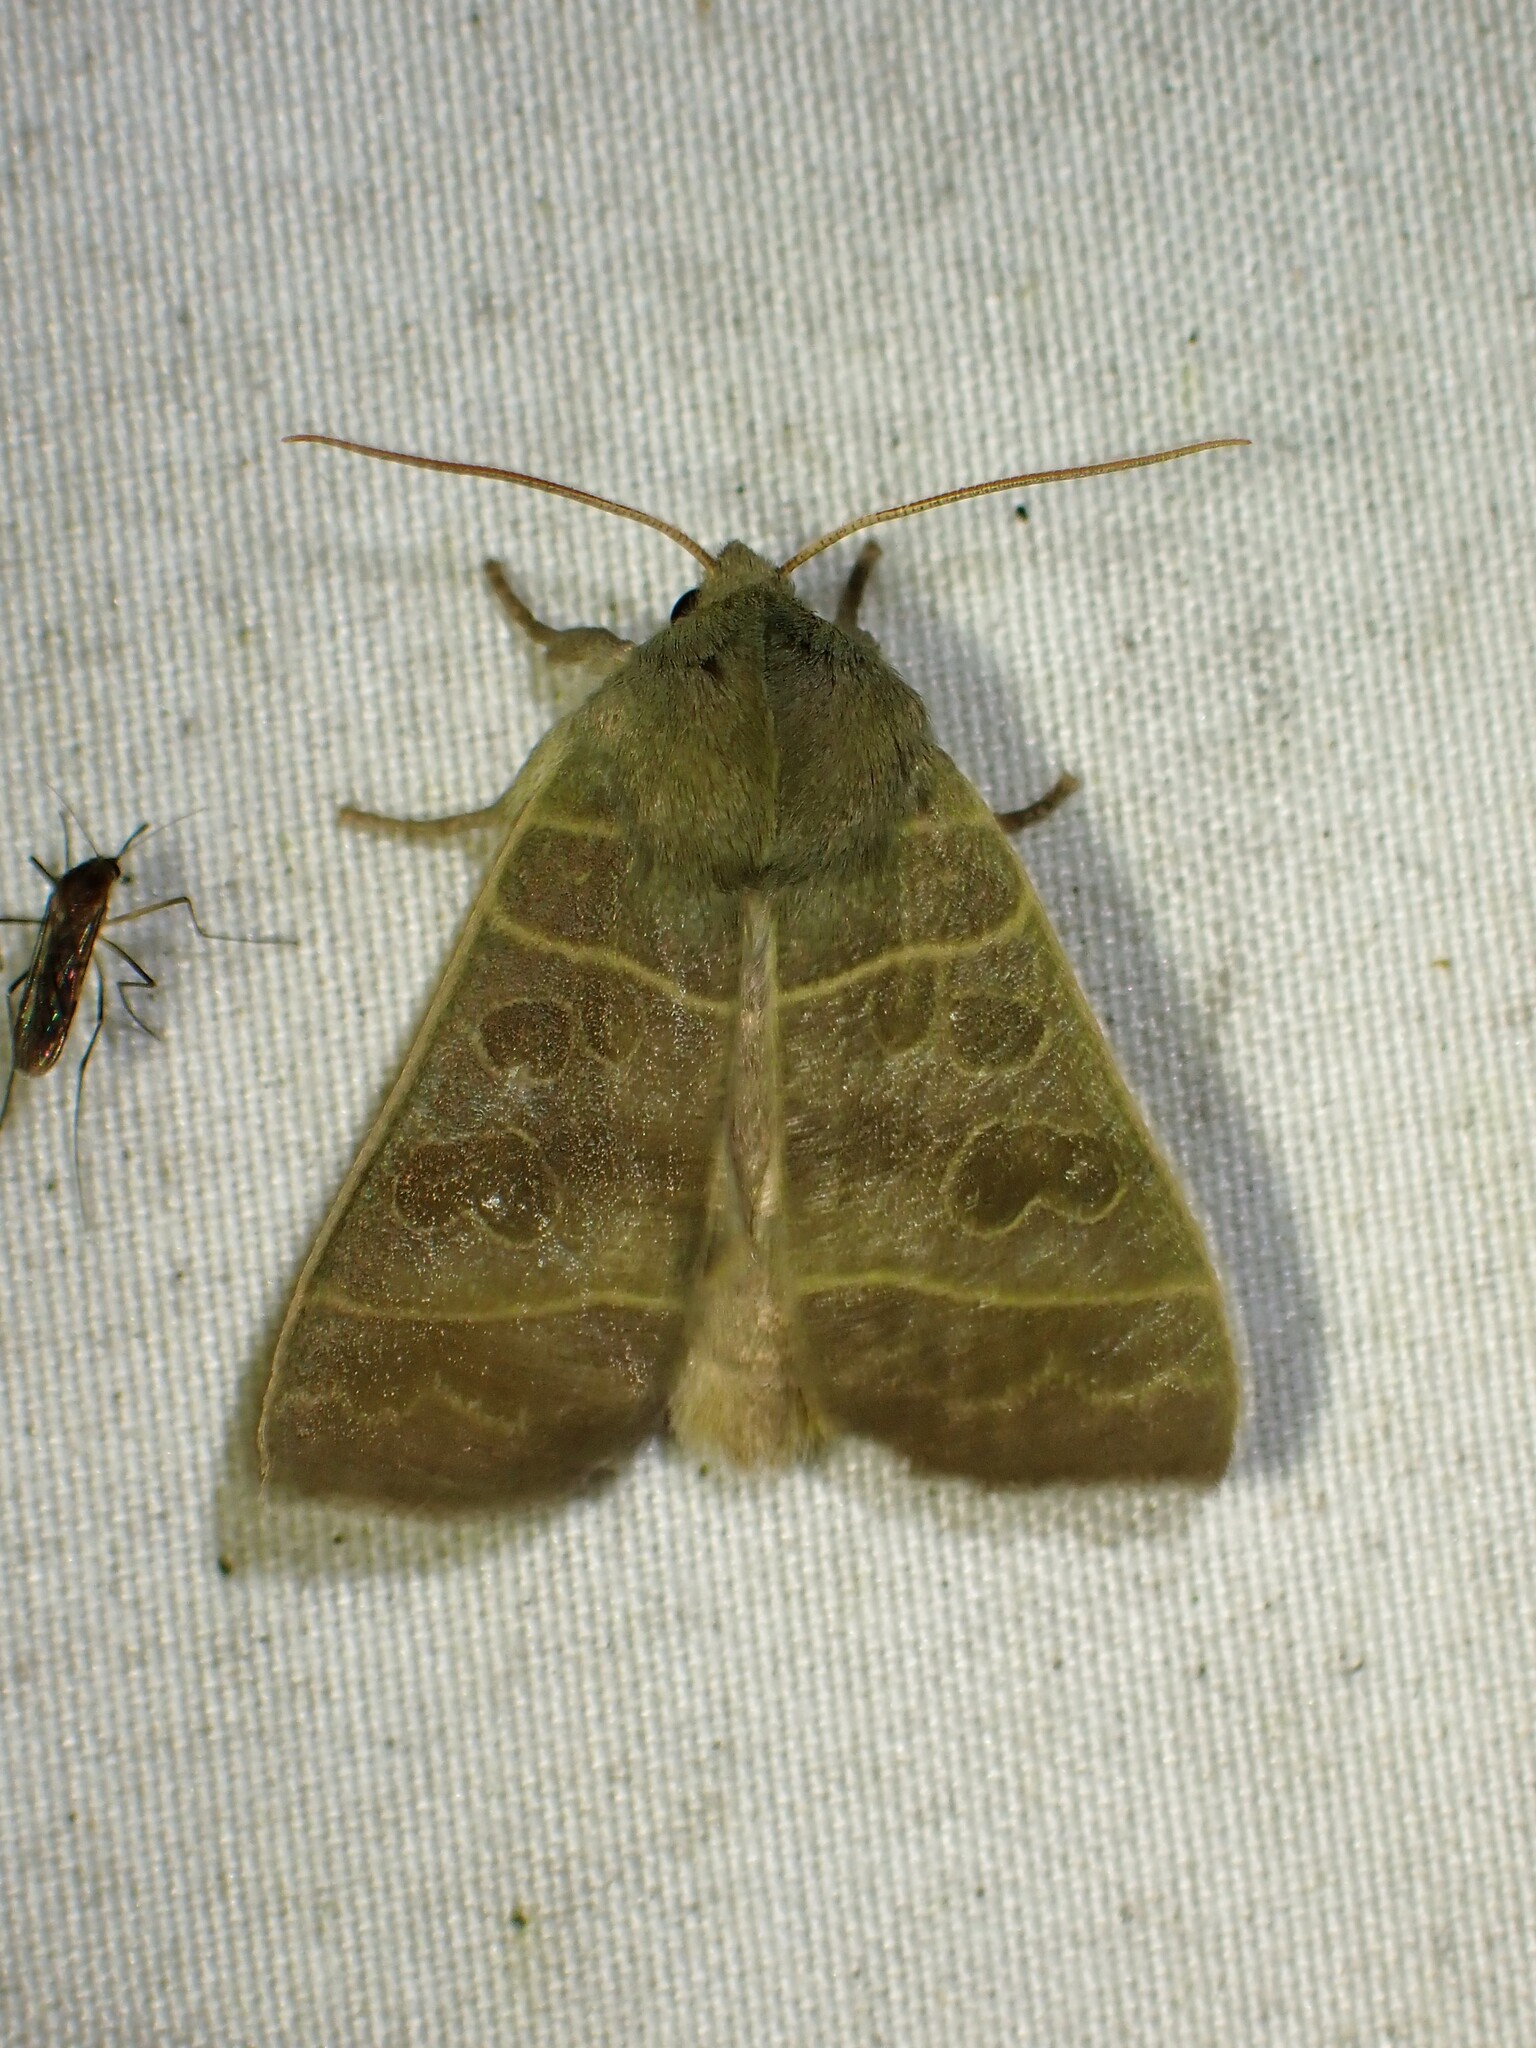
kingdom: Animalia
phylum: Arthropoda
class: Insecta
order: Lepidoptera
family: Noctuidae
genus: Ipimorpha
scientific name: Ipimorpha pleonectusa
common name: Even-lined sallow
